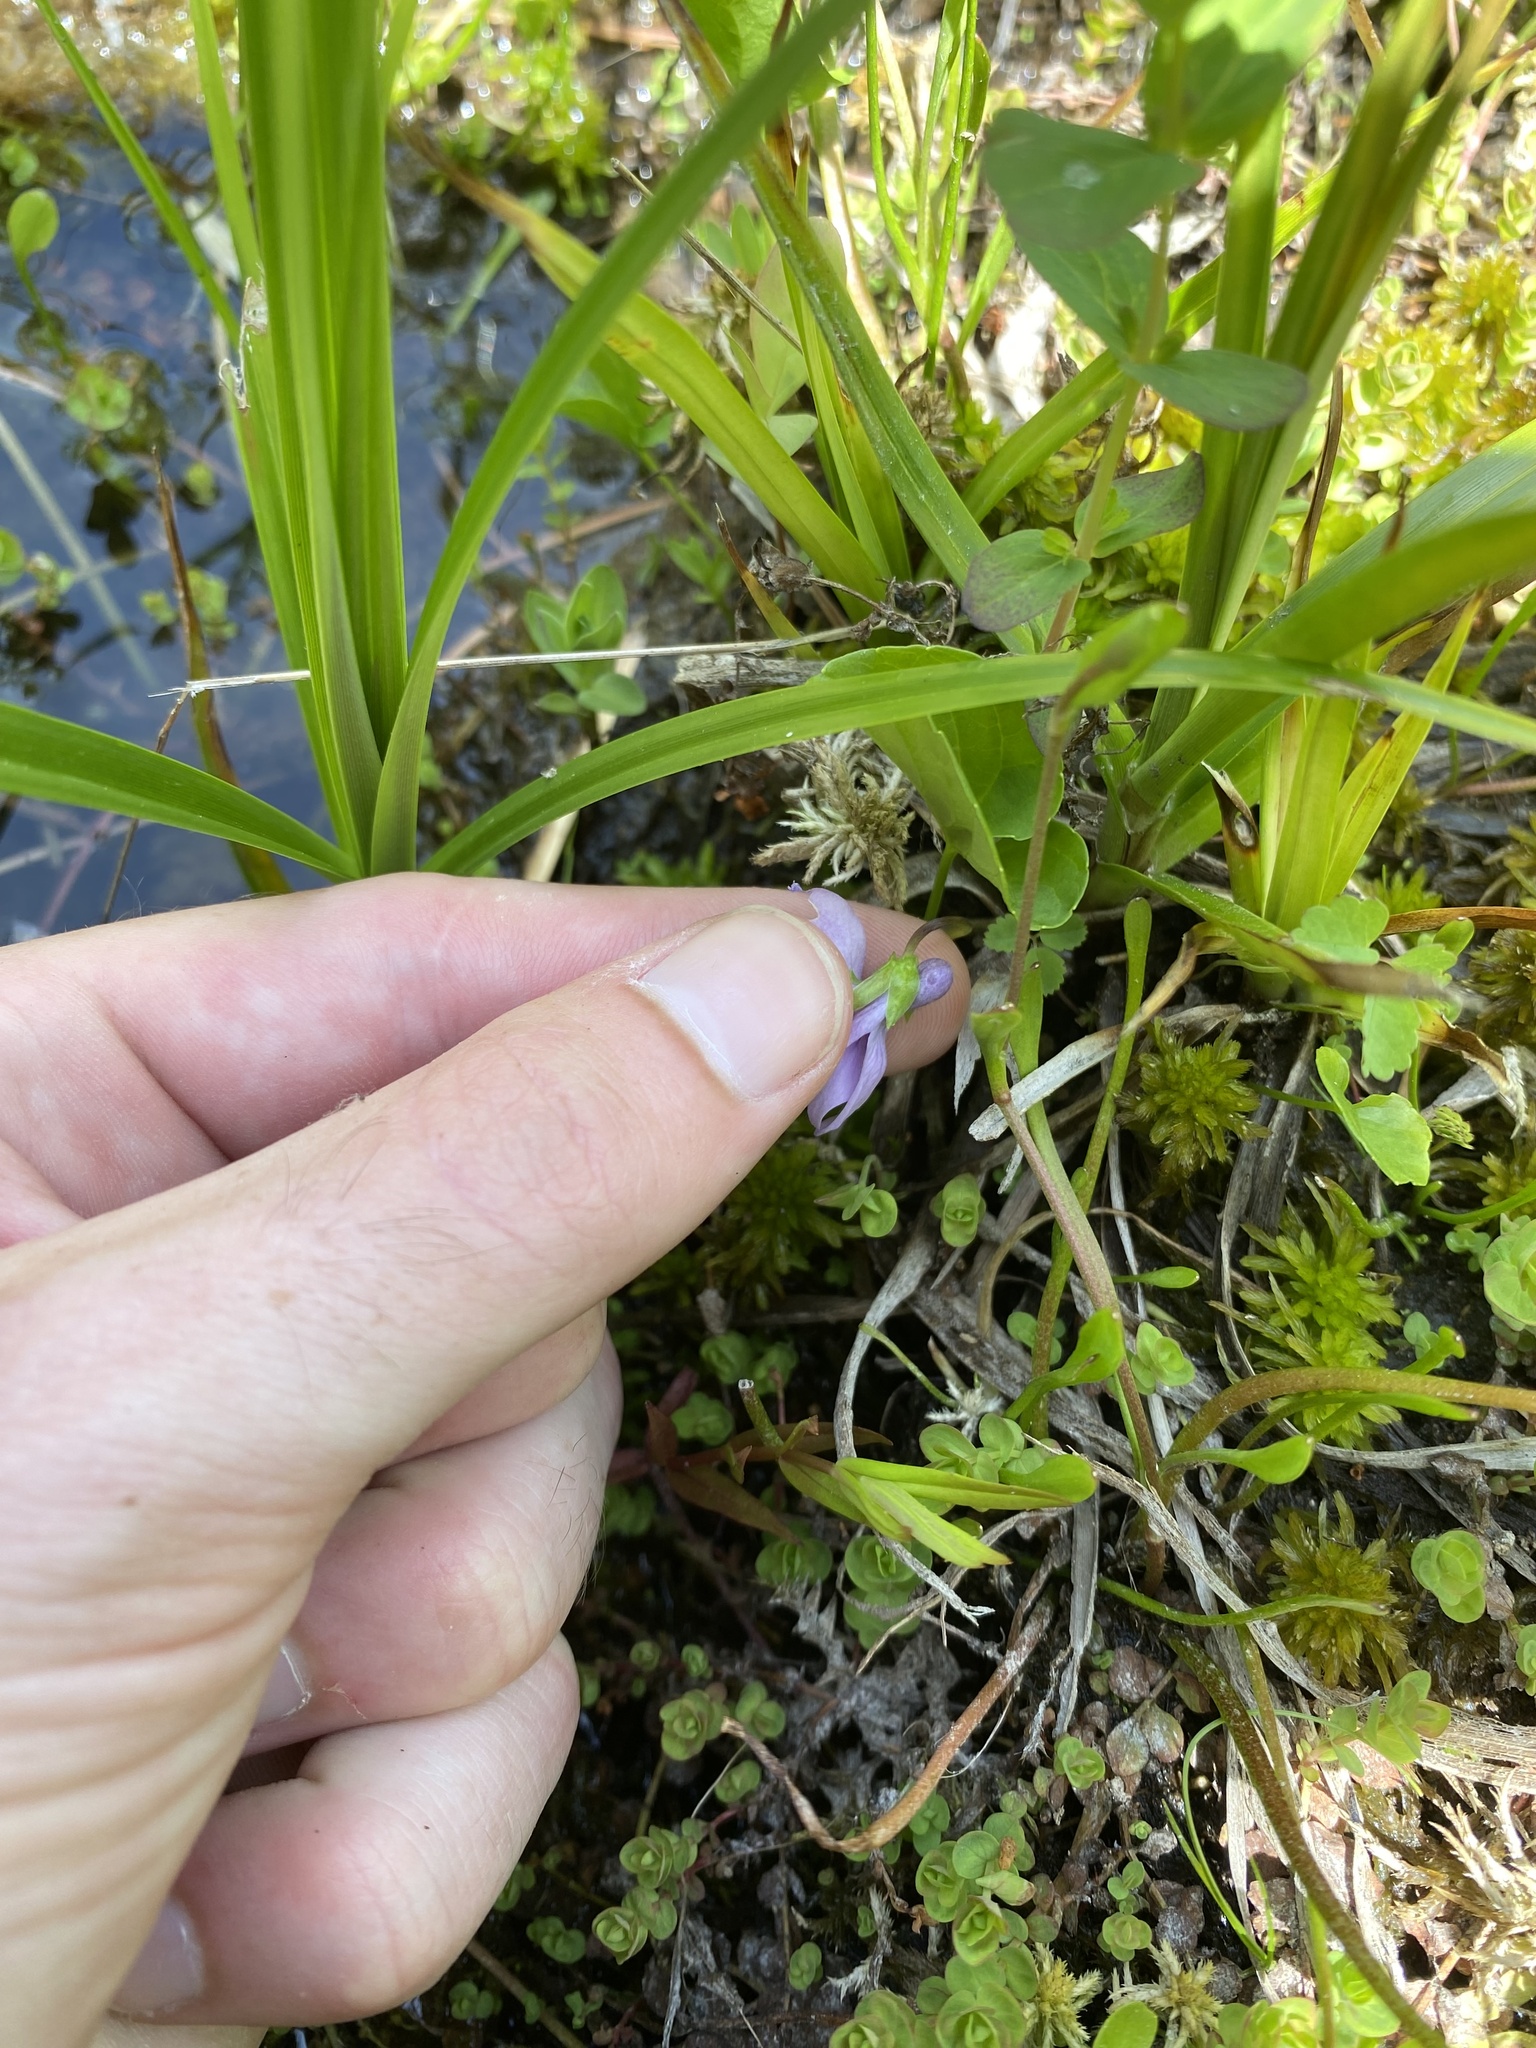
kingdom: Plantae
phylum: Tracheophyta
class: Magnoliopsida
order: Malpighiales
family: Violaceae
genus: Viola
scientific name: Viola palustris
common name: Marsh violet
